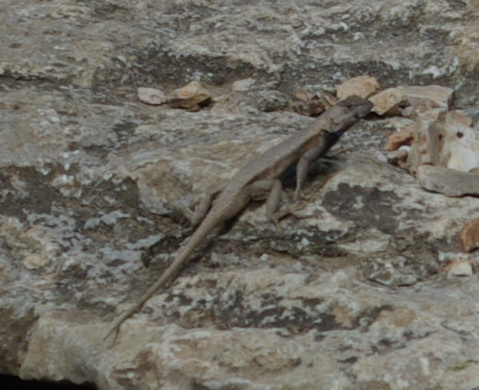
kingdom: Animalia
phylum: Chordata
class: Squamata
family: Phrynosomatidae
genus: Sceloporus
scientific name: Sceloporus consobrinus
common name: Southern prairie lizard
